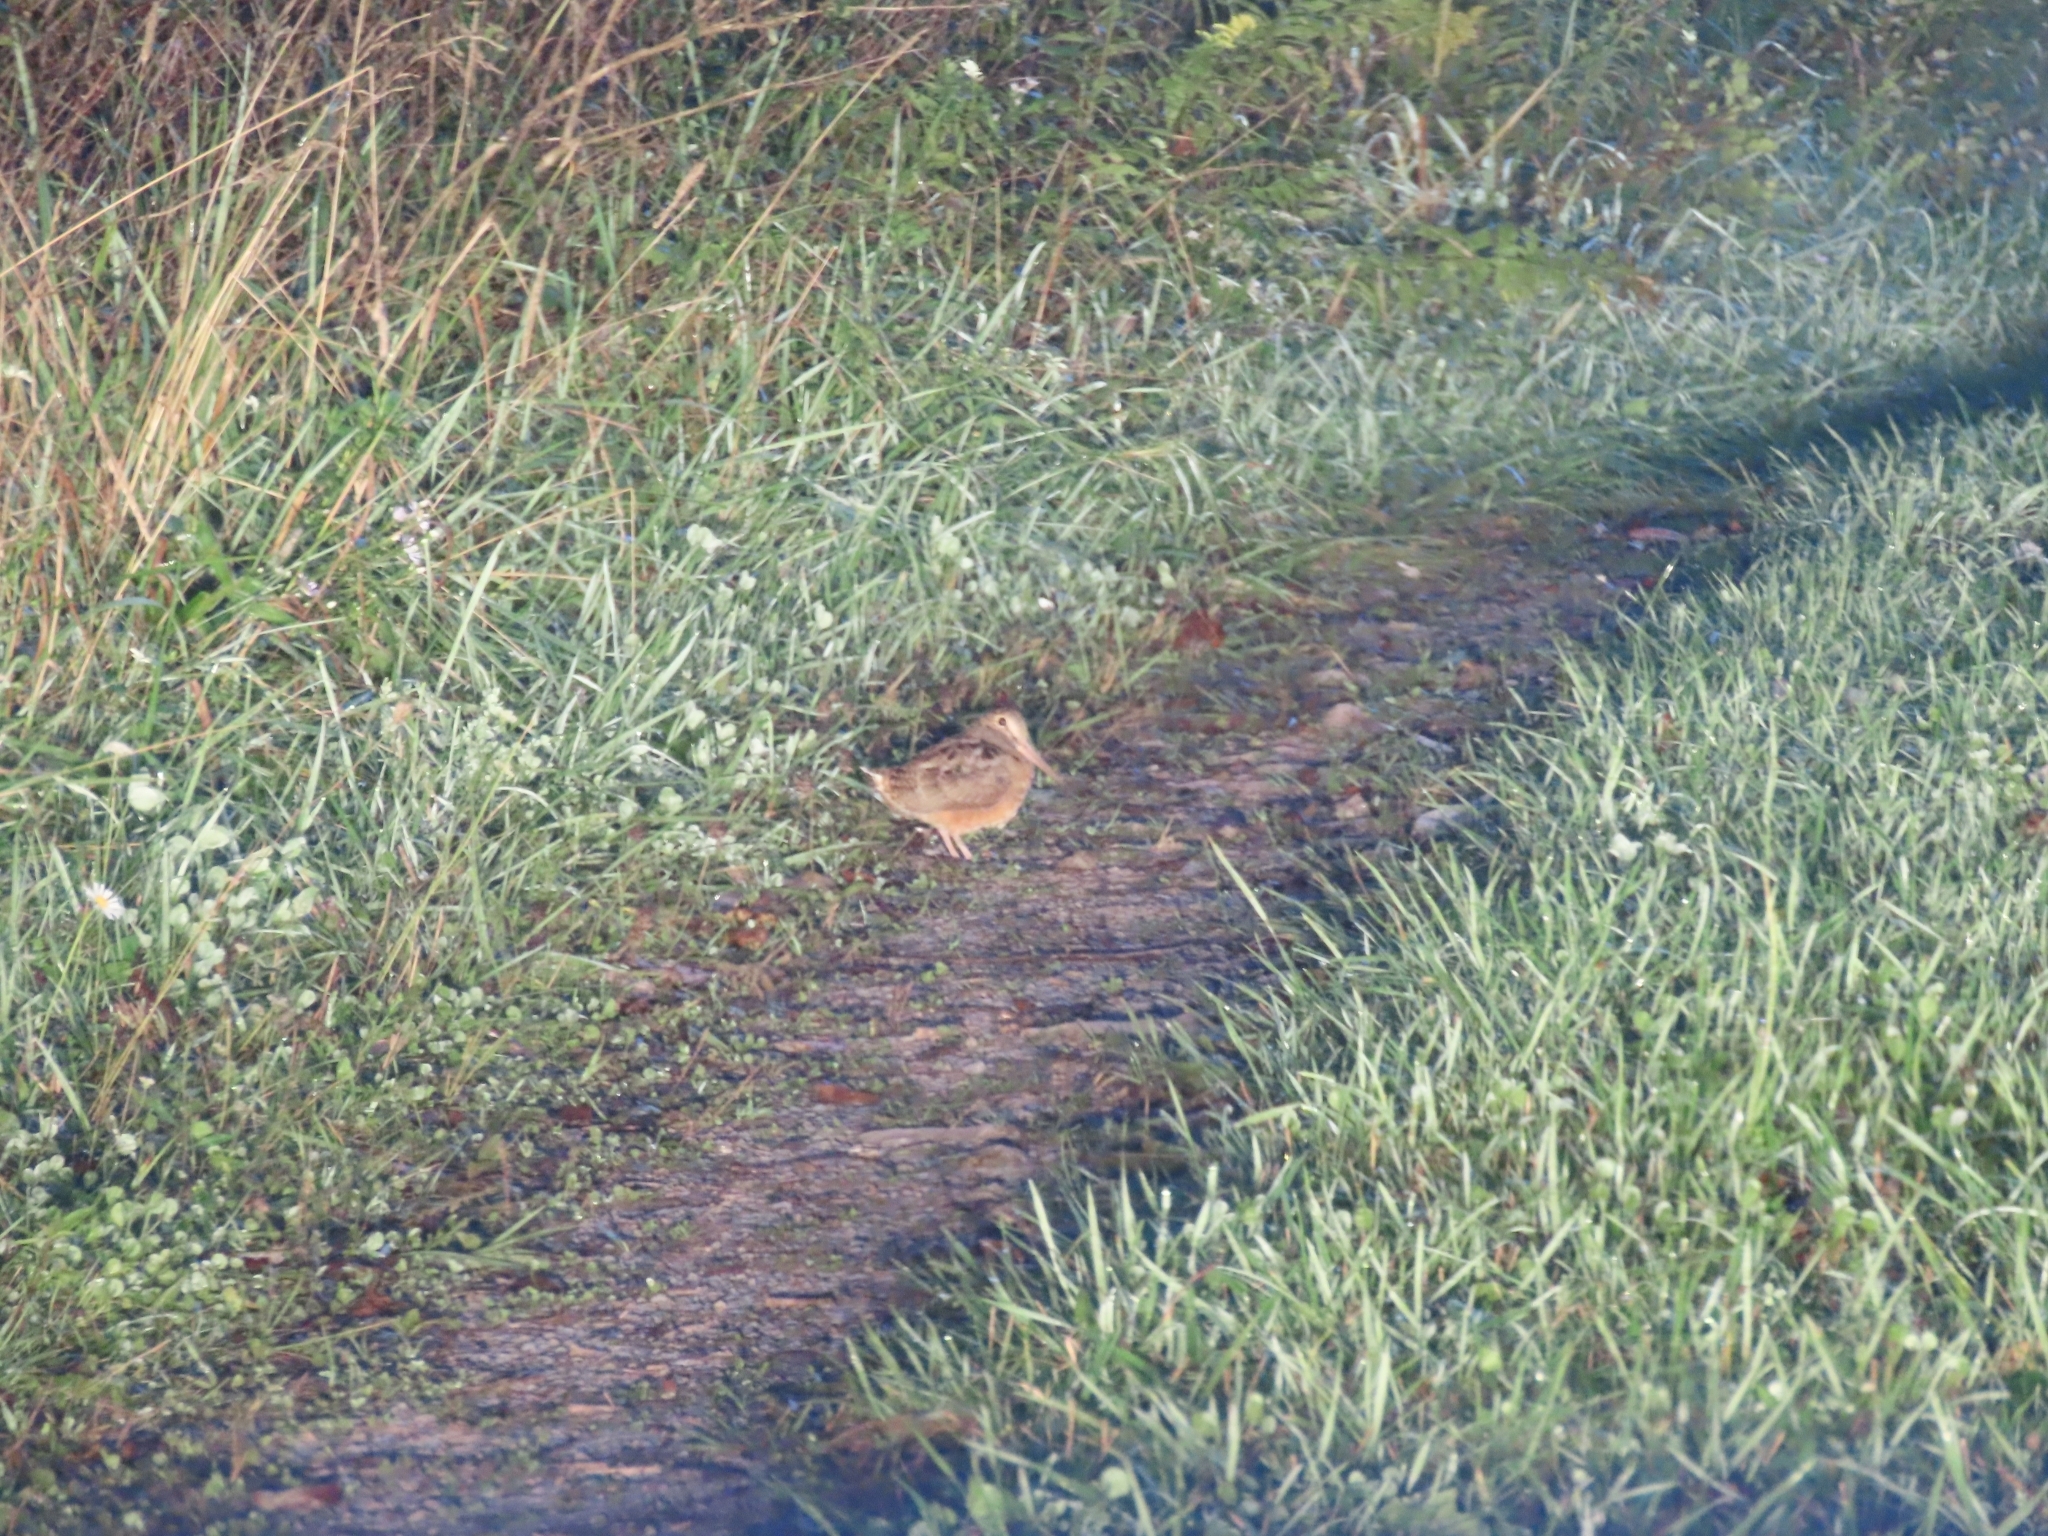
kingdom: Animalia
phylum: Chordata
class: Aves
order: Charadriiformes
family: Scolopacidae
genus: Scolopax
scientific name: Scolopax minor
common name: American woodcock
